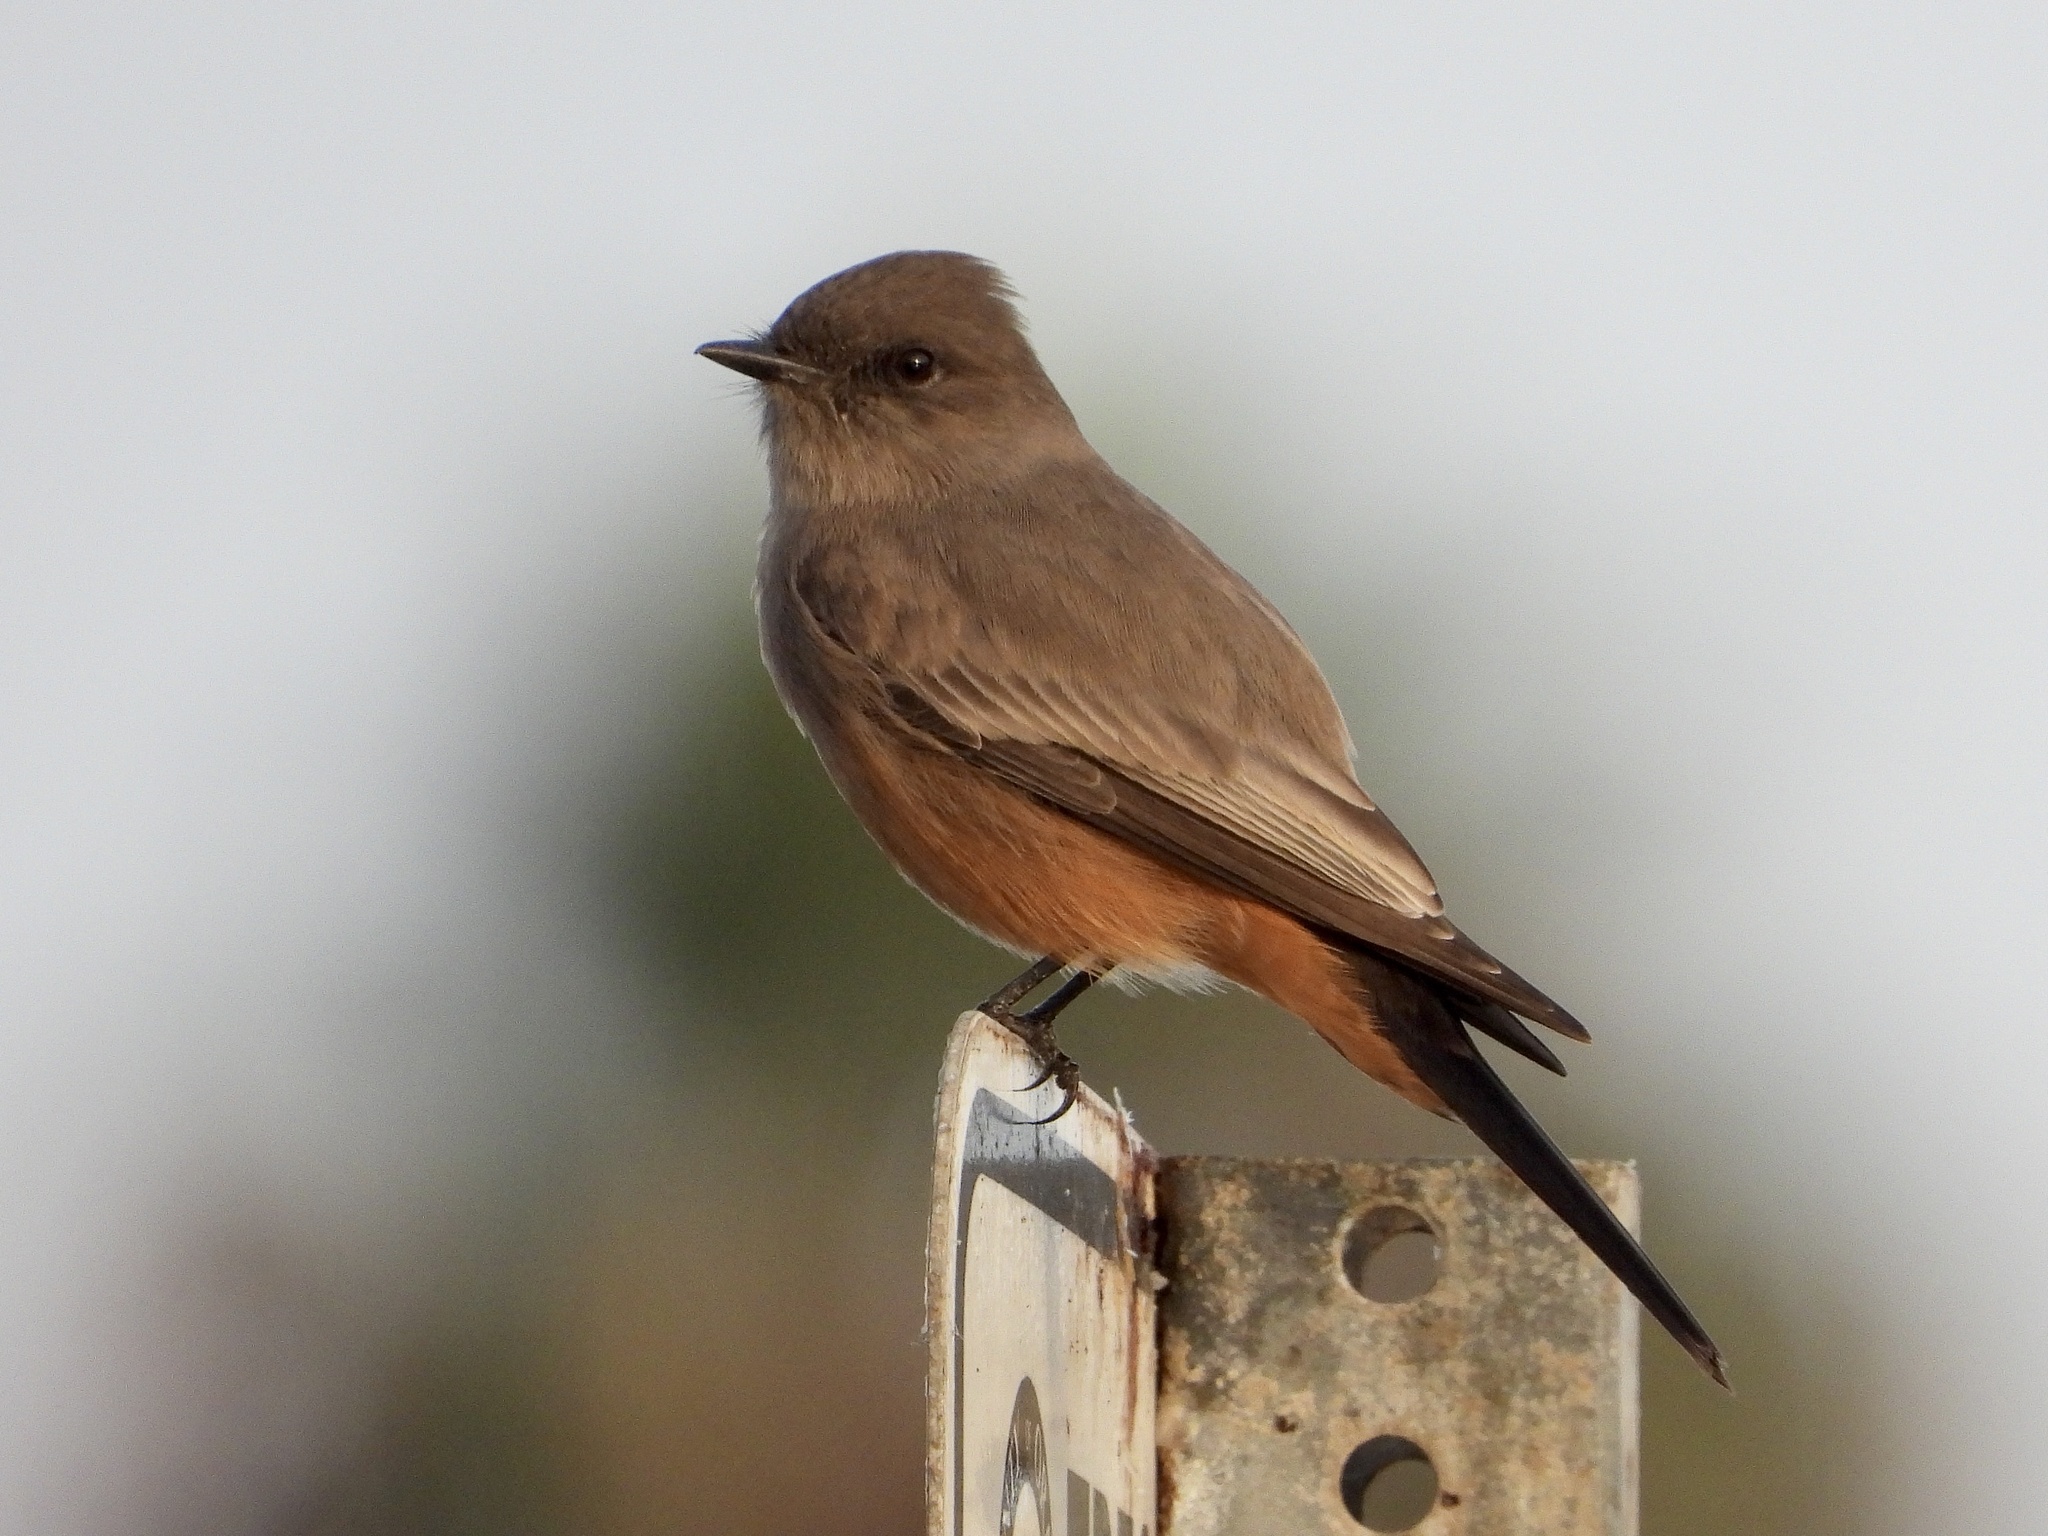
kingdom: Animalia
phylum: Chordata
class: Aves
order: Passeriformes
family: Tyrannidae
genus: Sayornis
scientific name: Sayornis saya
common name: Say's phoebe
